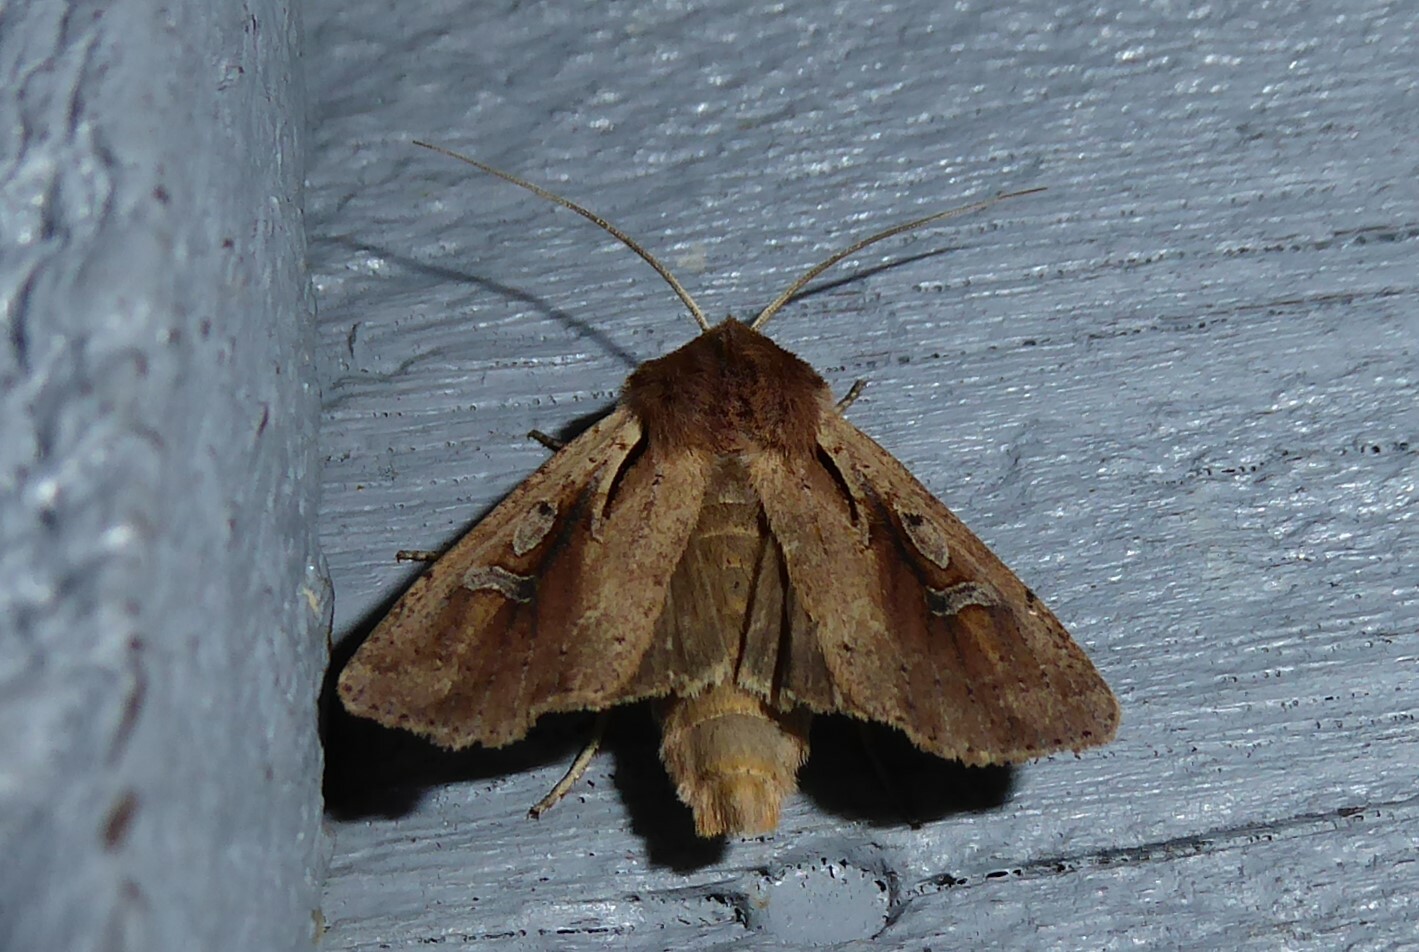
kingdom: Animalia
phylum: Arthropoda
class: Insecta
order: Lepidoptera
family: Noctuidae
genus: Ichneutica
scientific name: Ichneutica atristriga
